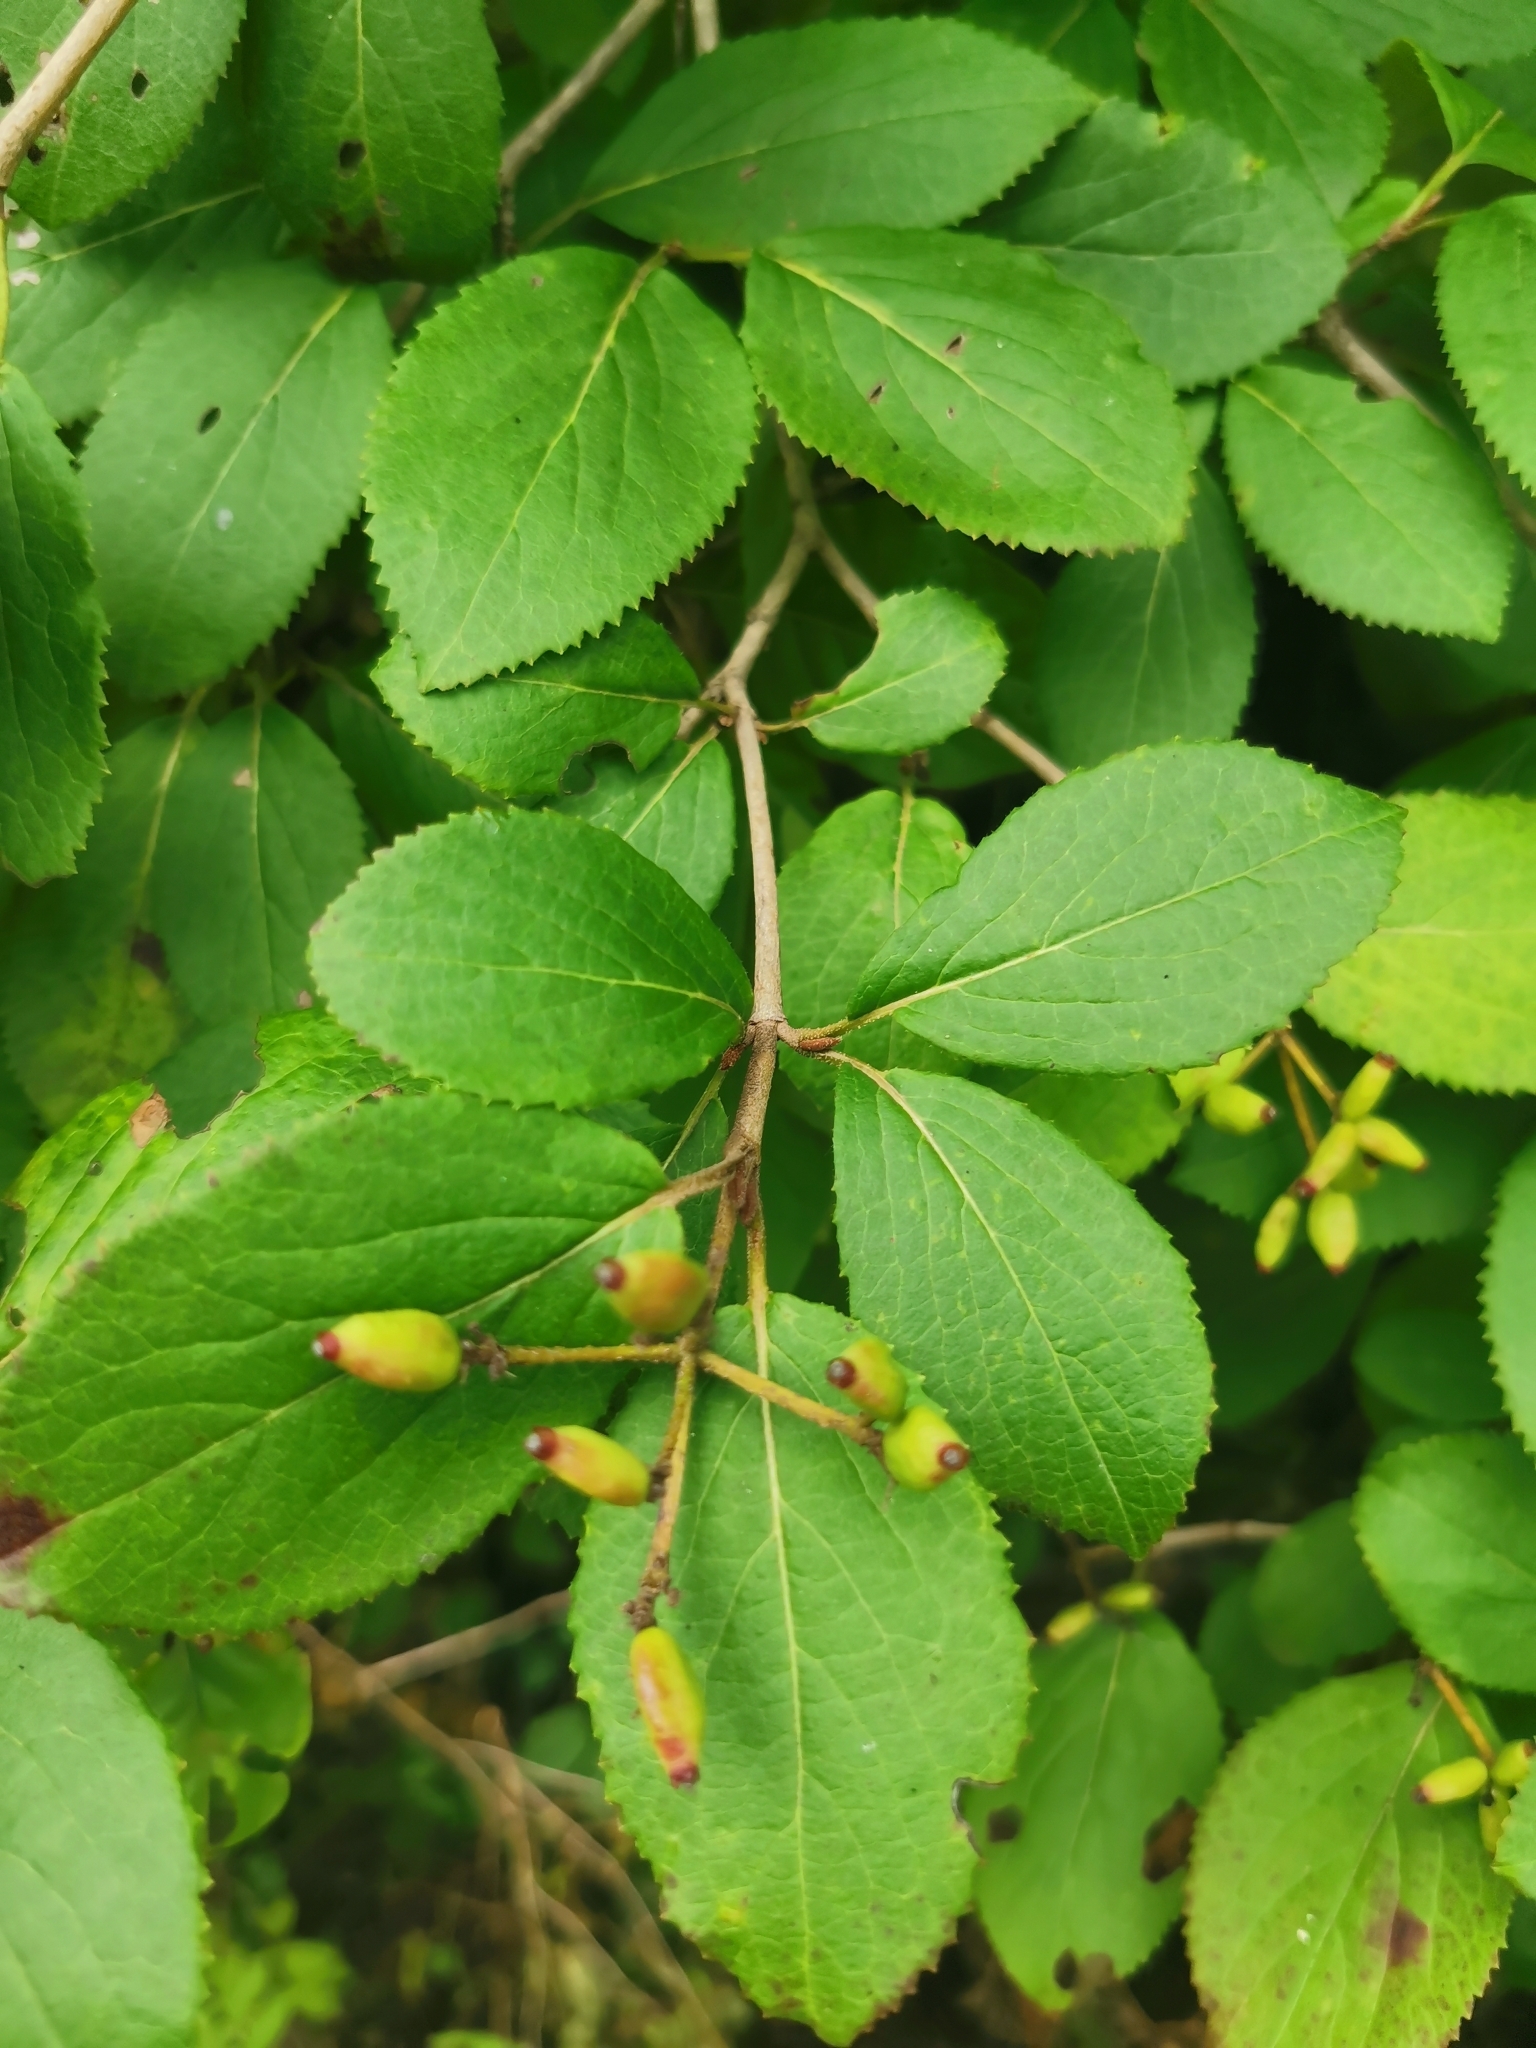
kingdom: Plantae
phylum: Tracheophyta
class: Magnoliopsida
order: Dipsacales
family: Viburnaceae
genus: Viburnum
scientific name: Viburnum burejaeticum
